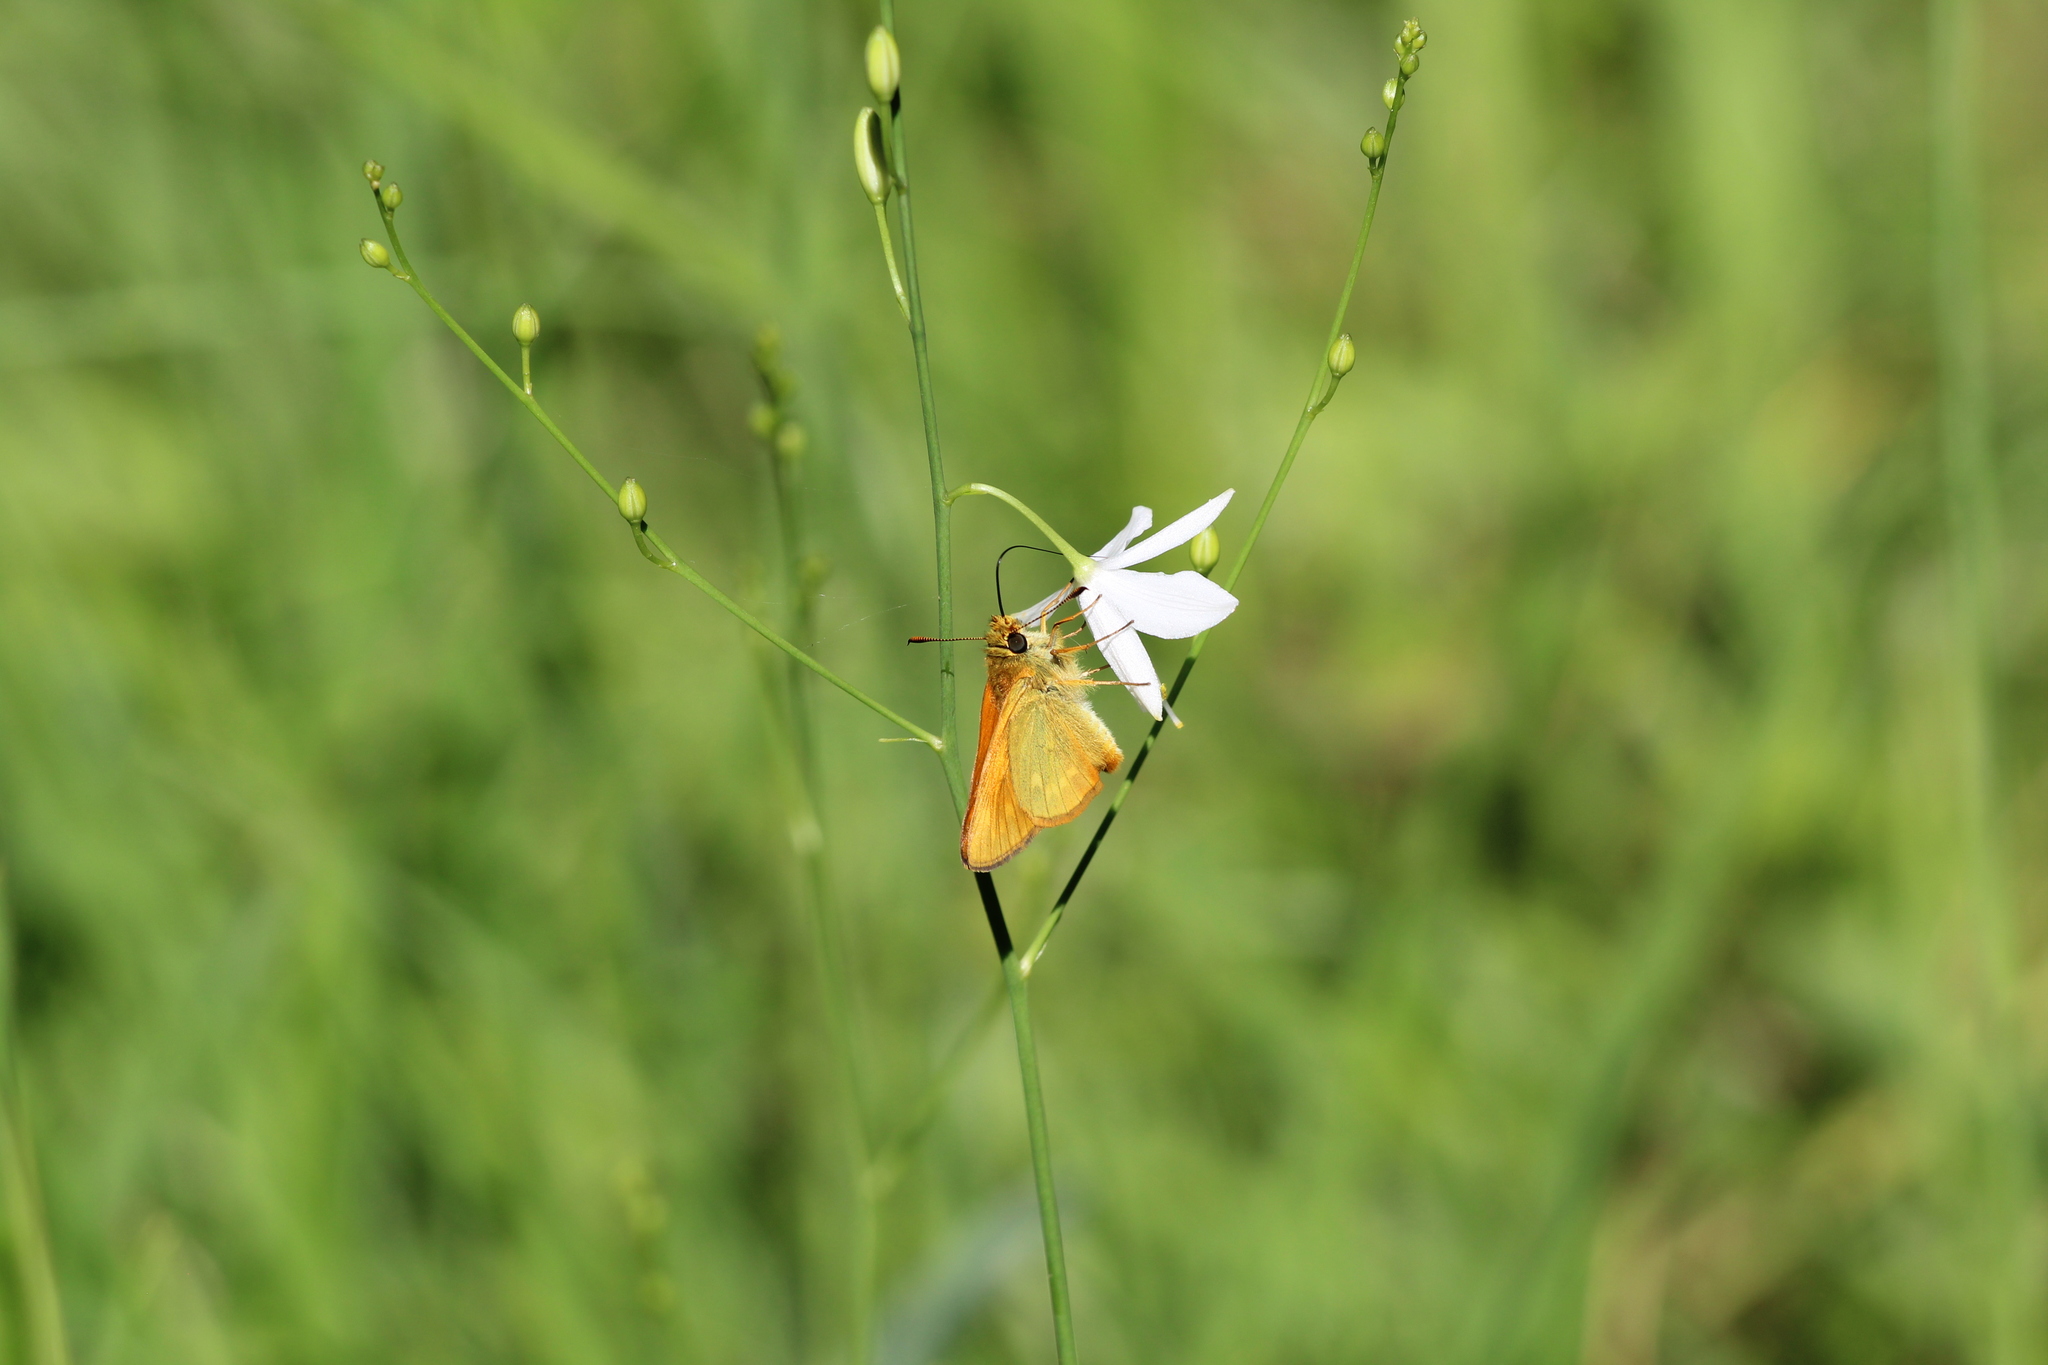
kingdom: Animalia
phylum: Arthropoda
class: Insecta
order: Lepidoptera
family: Hesperiidae
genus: Ochlodes
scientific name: Ochlodes venata
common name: Large skipper
